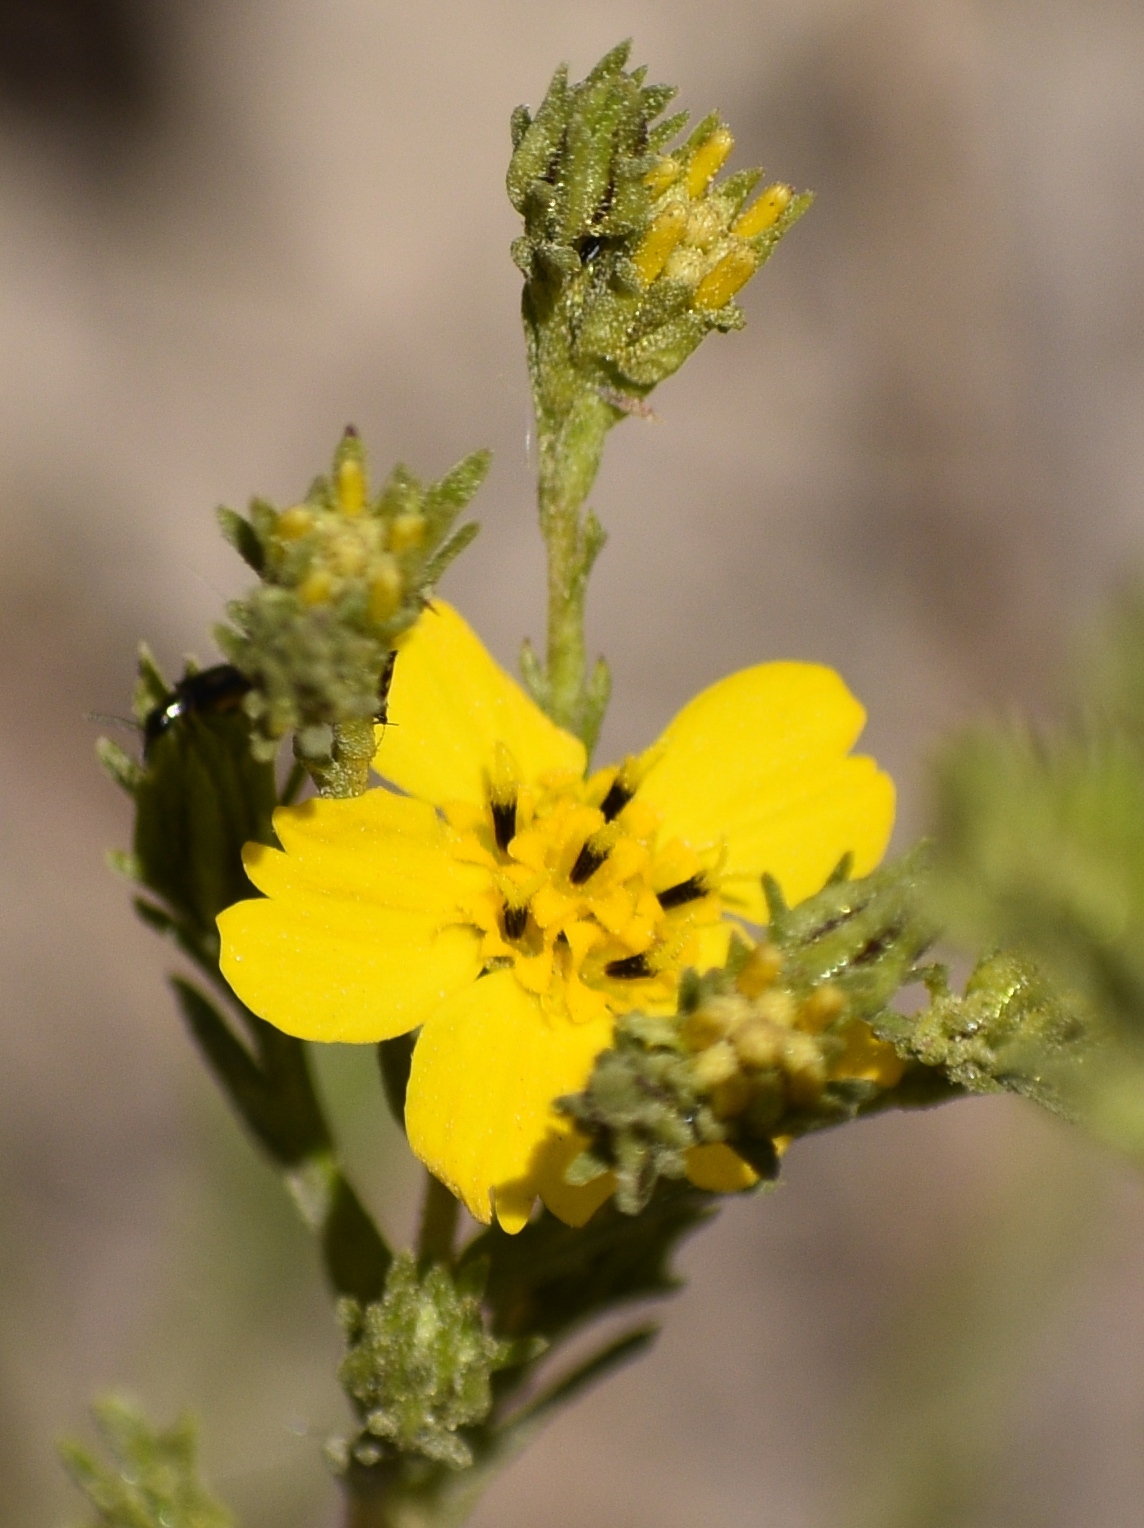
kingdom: Plantae
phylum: Tracheophyta
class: Magnoliopsida
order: Asterales
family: Asteraceae
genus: Deinandra
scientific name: Deinandra fasciculata
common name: Clustered tarweed
